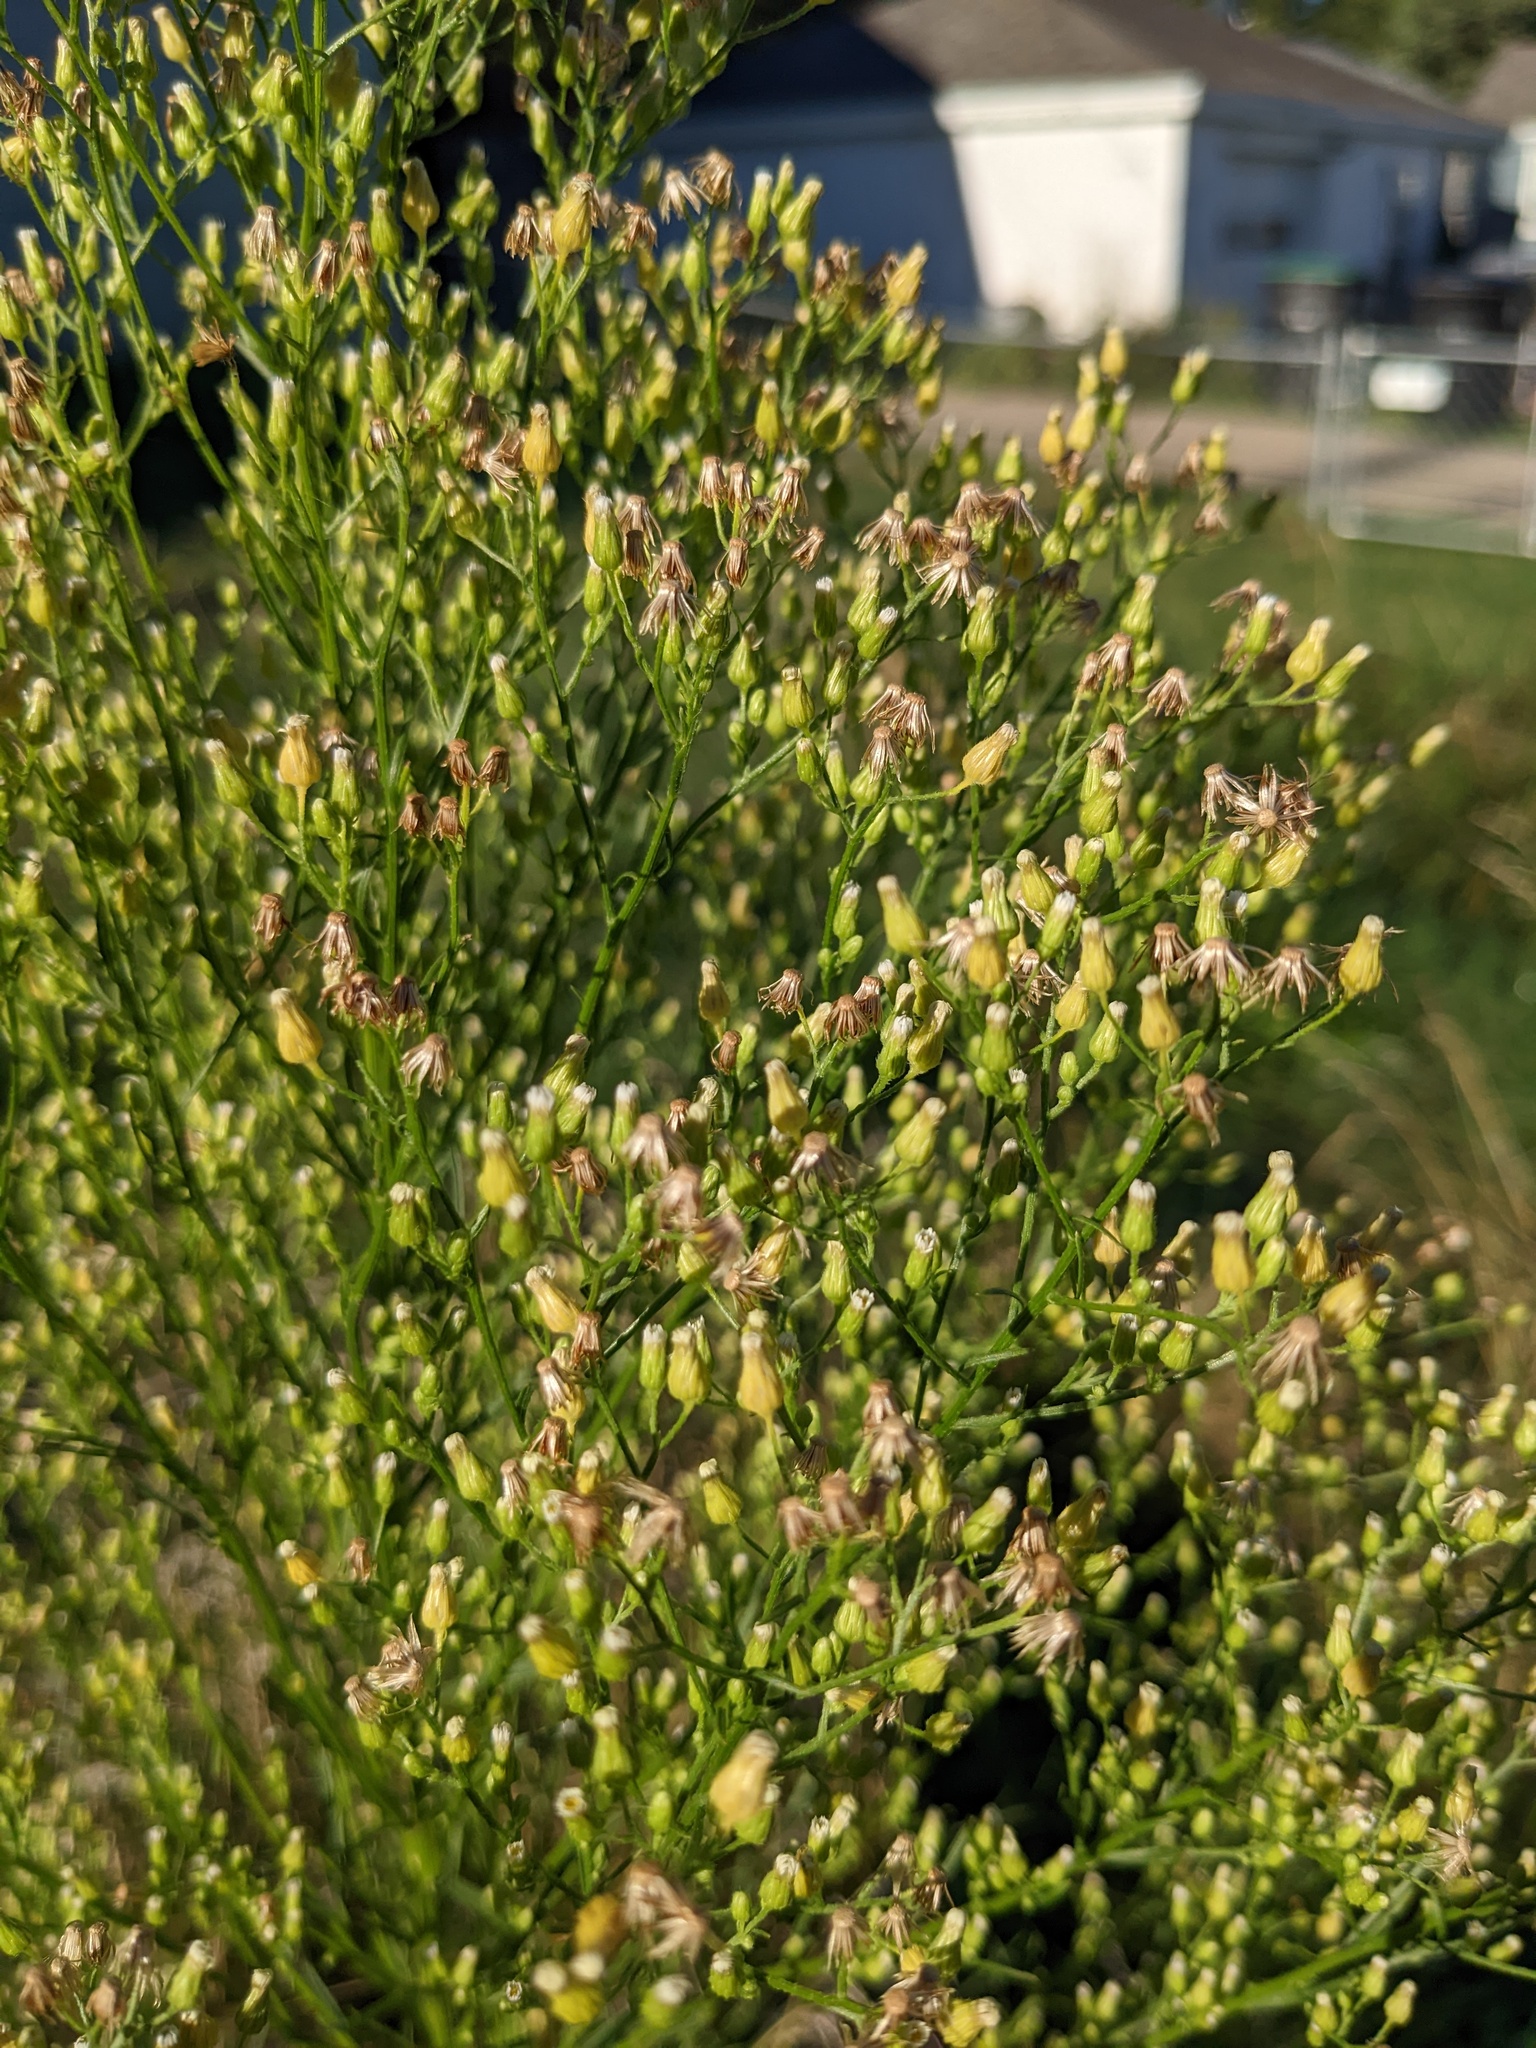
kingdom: Plantae
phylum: Tracheophyta
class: Magnoliopsida
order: Asterales
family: Asteraceae
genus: Erigeron
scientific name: Erigeron canadensis
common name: Canadian fleabane
